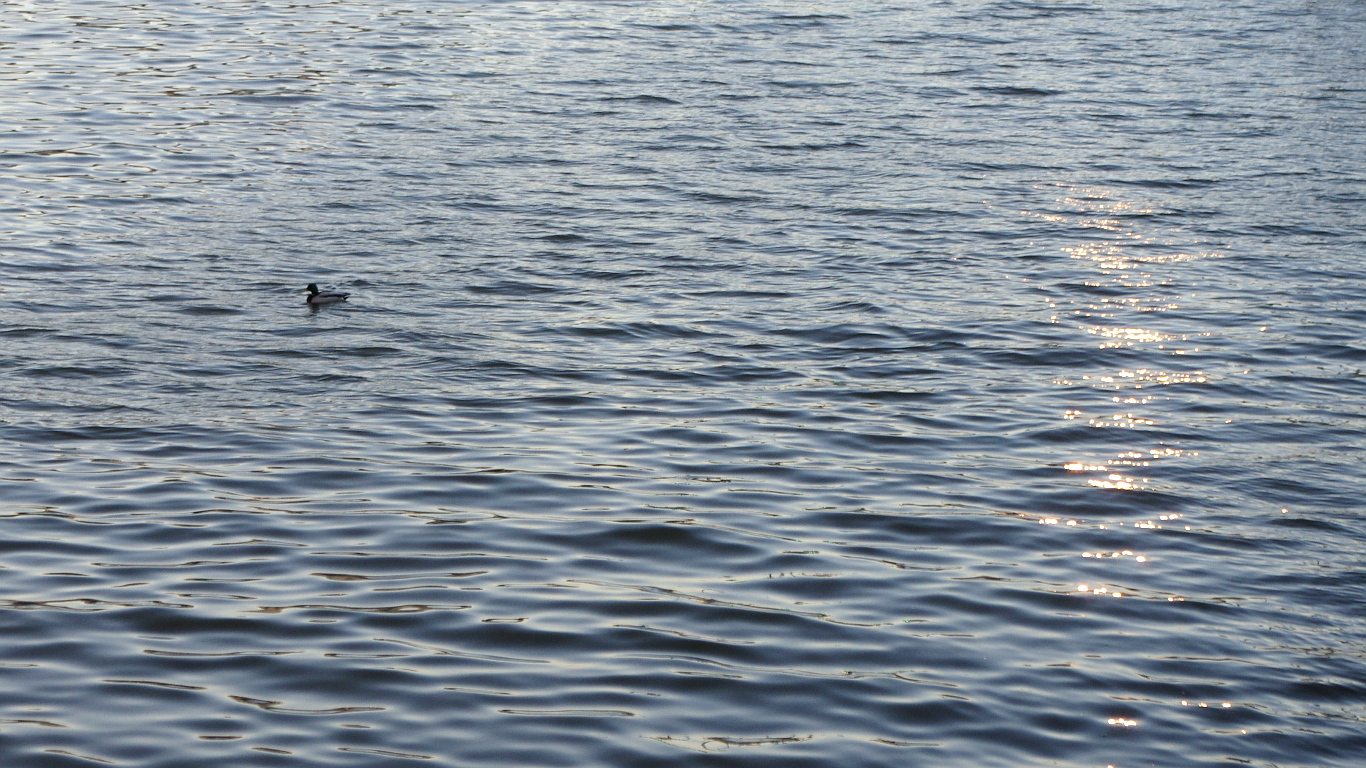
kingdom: Animalia
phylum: Chordata
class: Aves
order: Anseriformes
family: Anatidae
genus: Anas
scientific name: Anas platyrhynchos
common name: Mallard
